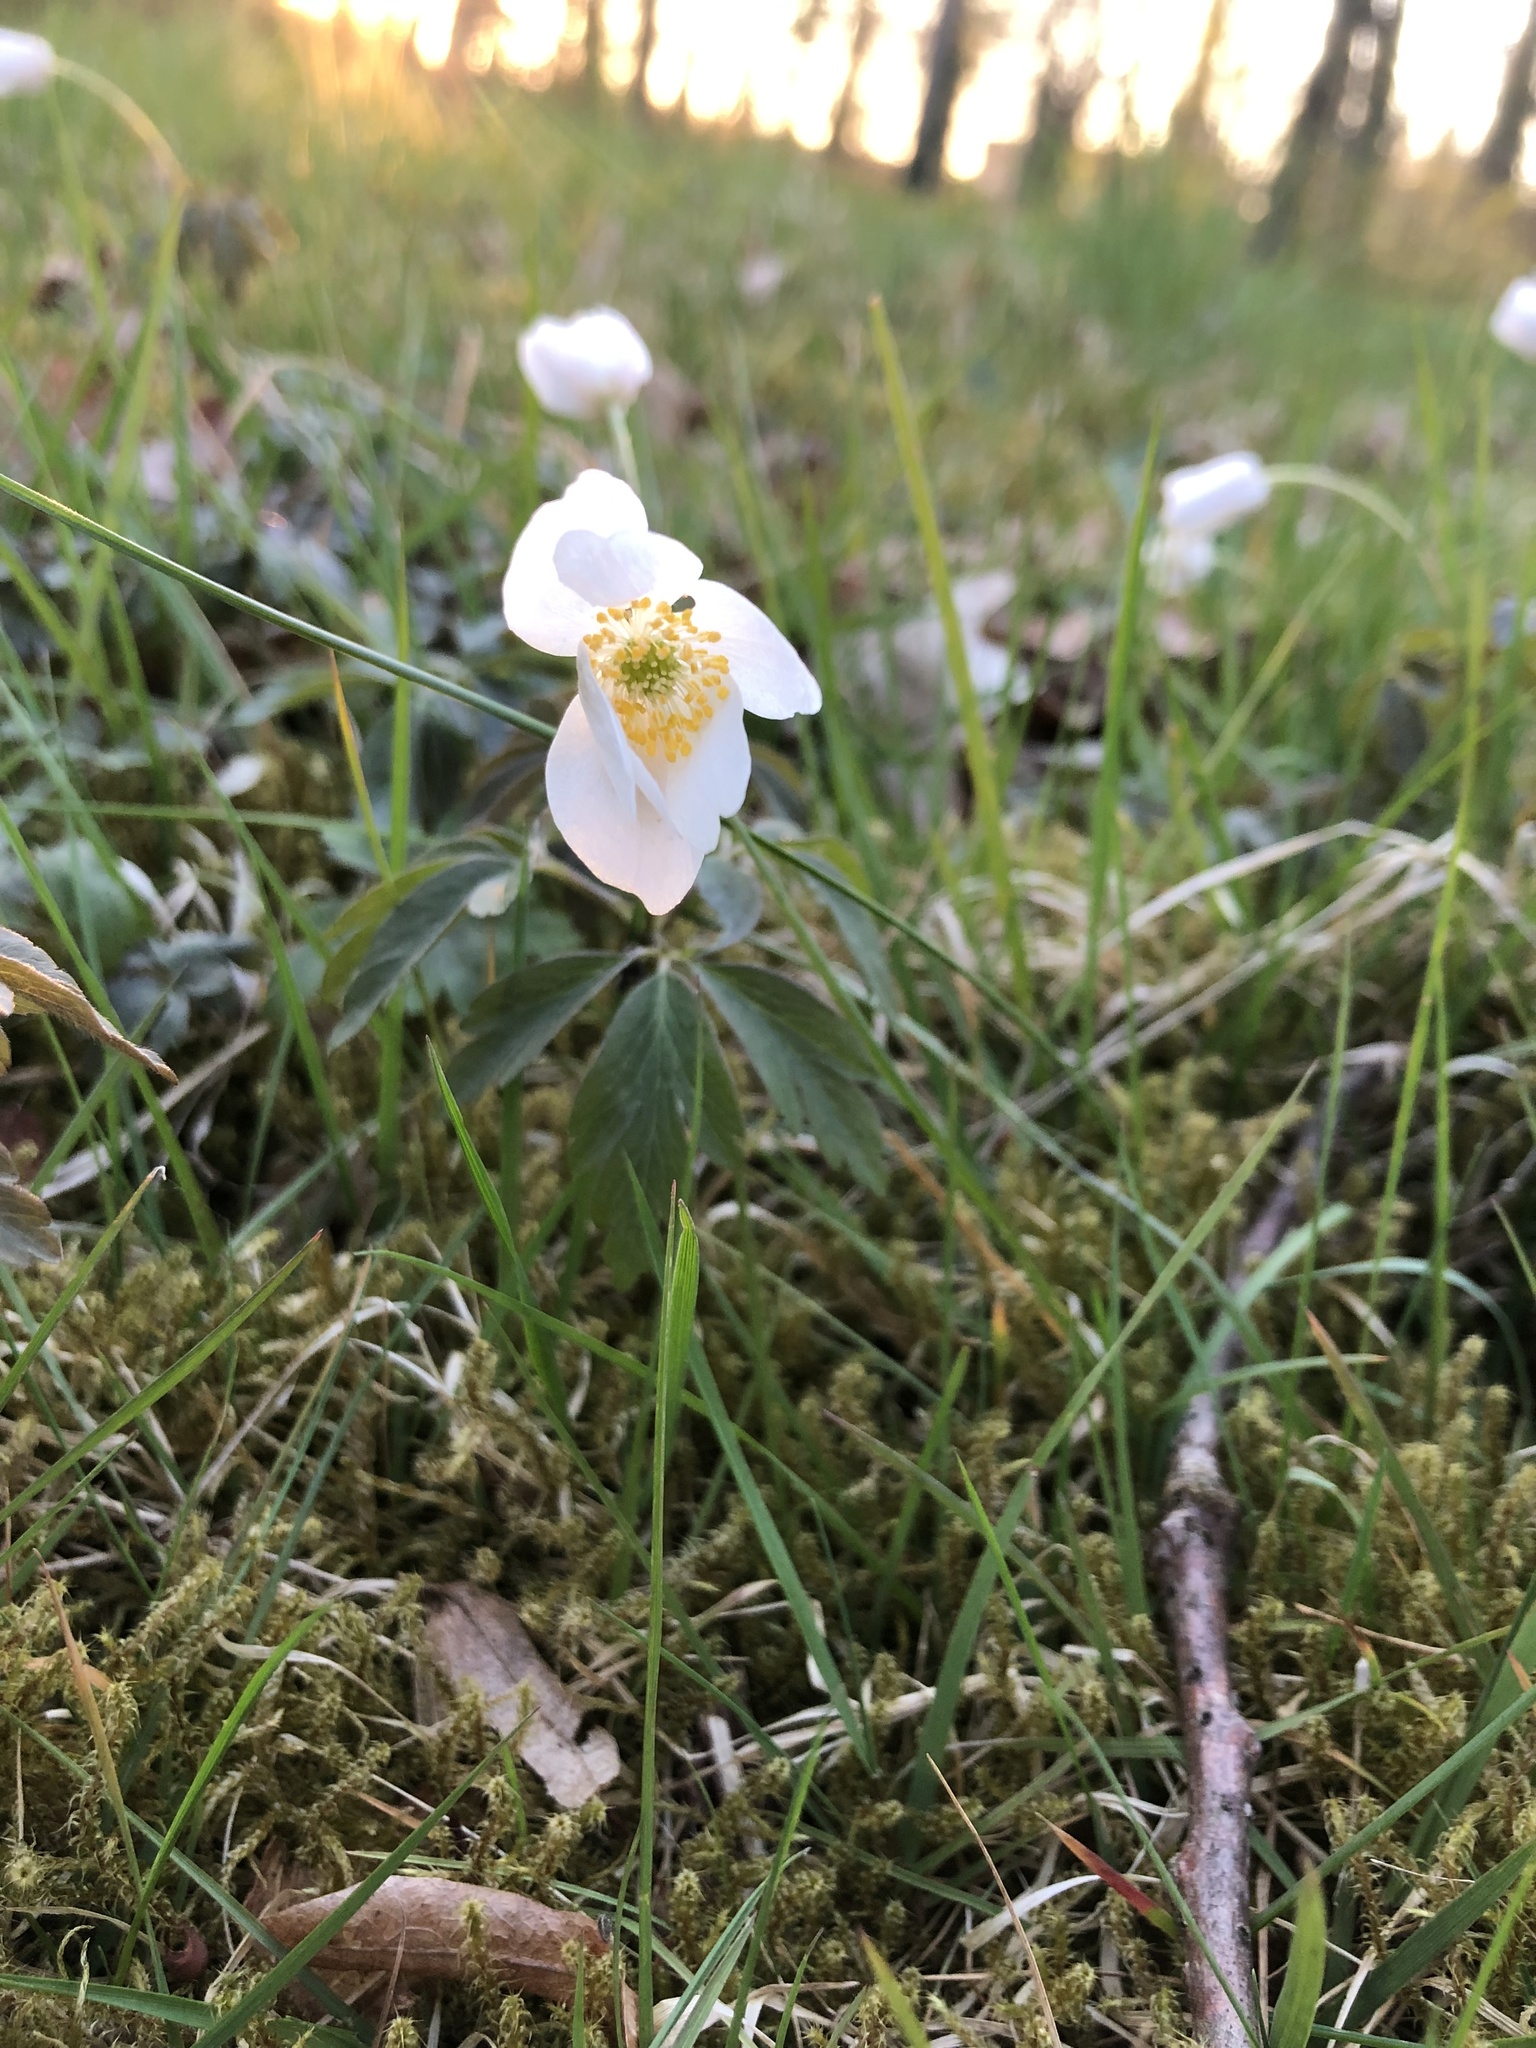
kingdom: Plantae
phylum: Tracheophyta
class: Magnoliopsida
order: Ranunculales
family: Ranunculaceae
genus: Anemone
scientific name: Anemone nemorosa
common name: Wood anemone
